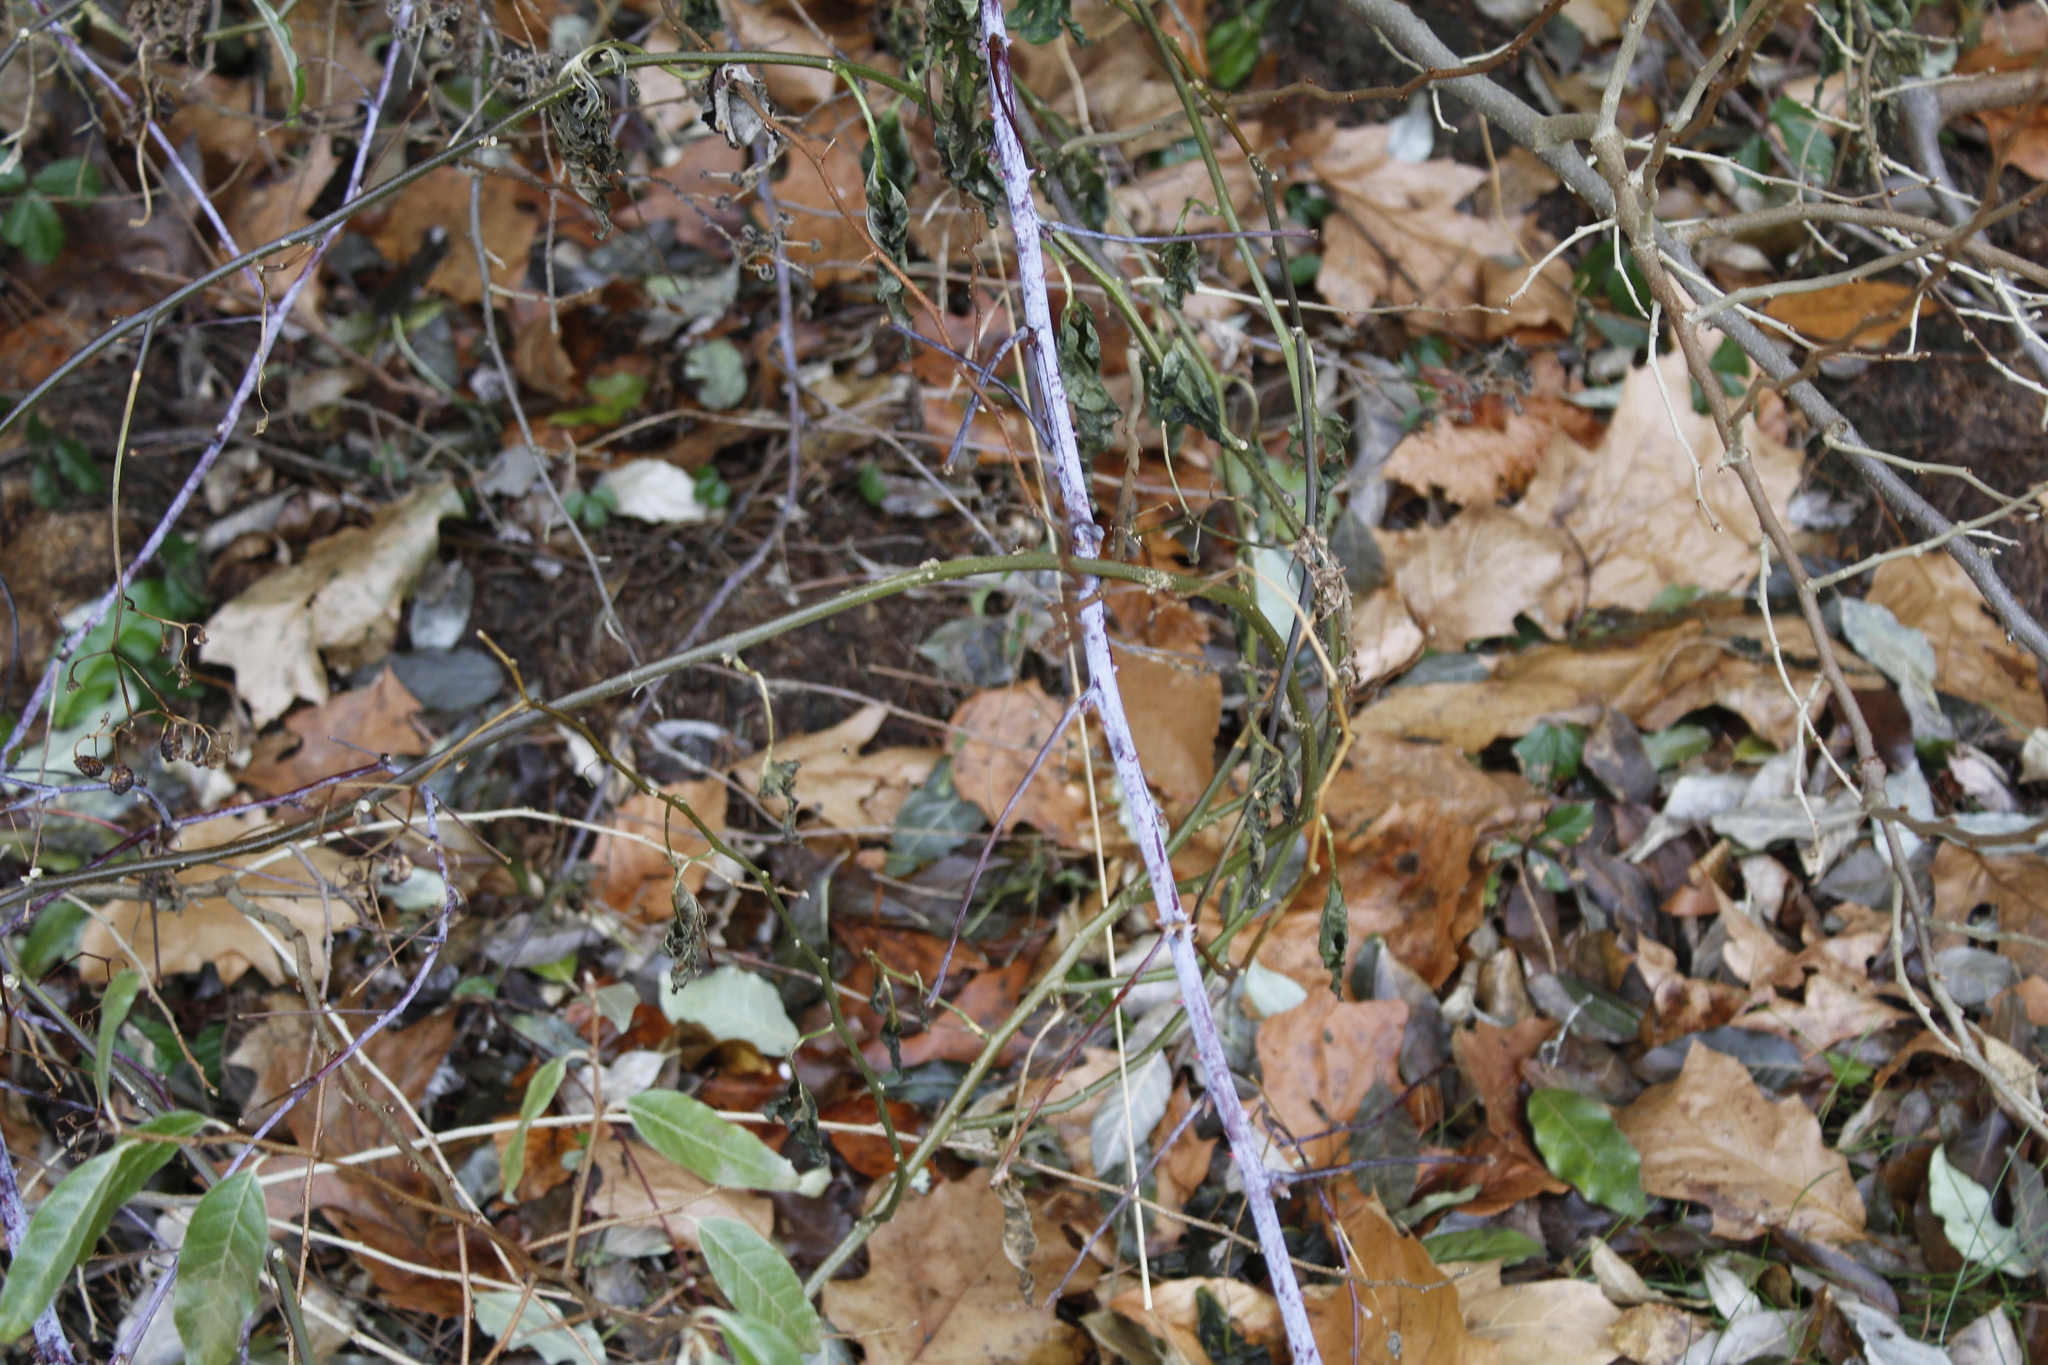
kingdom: Plantae
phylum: Tracheophyta
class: Magnoliopsida
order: Rosales
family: Rosaceae
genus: Rubus
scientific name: Rubus occidentalis
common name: Black raspberry
